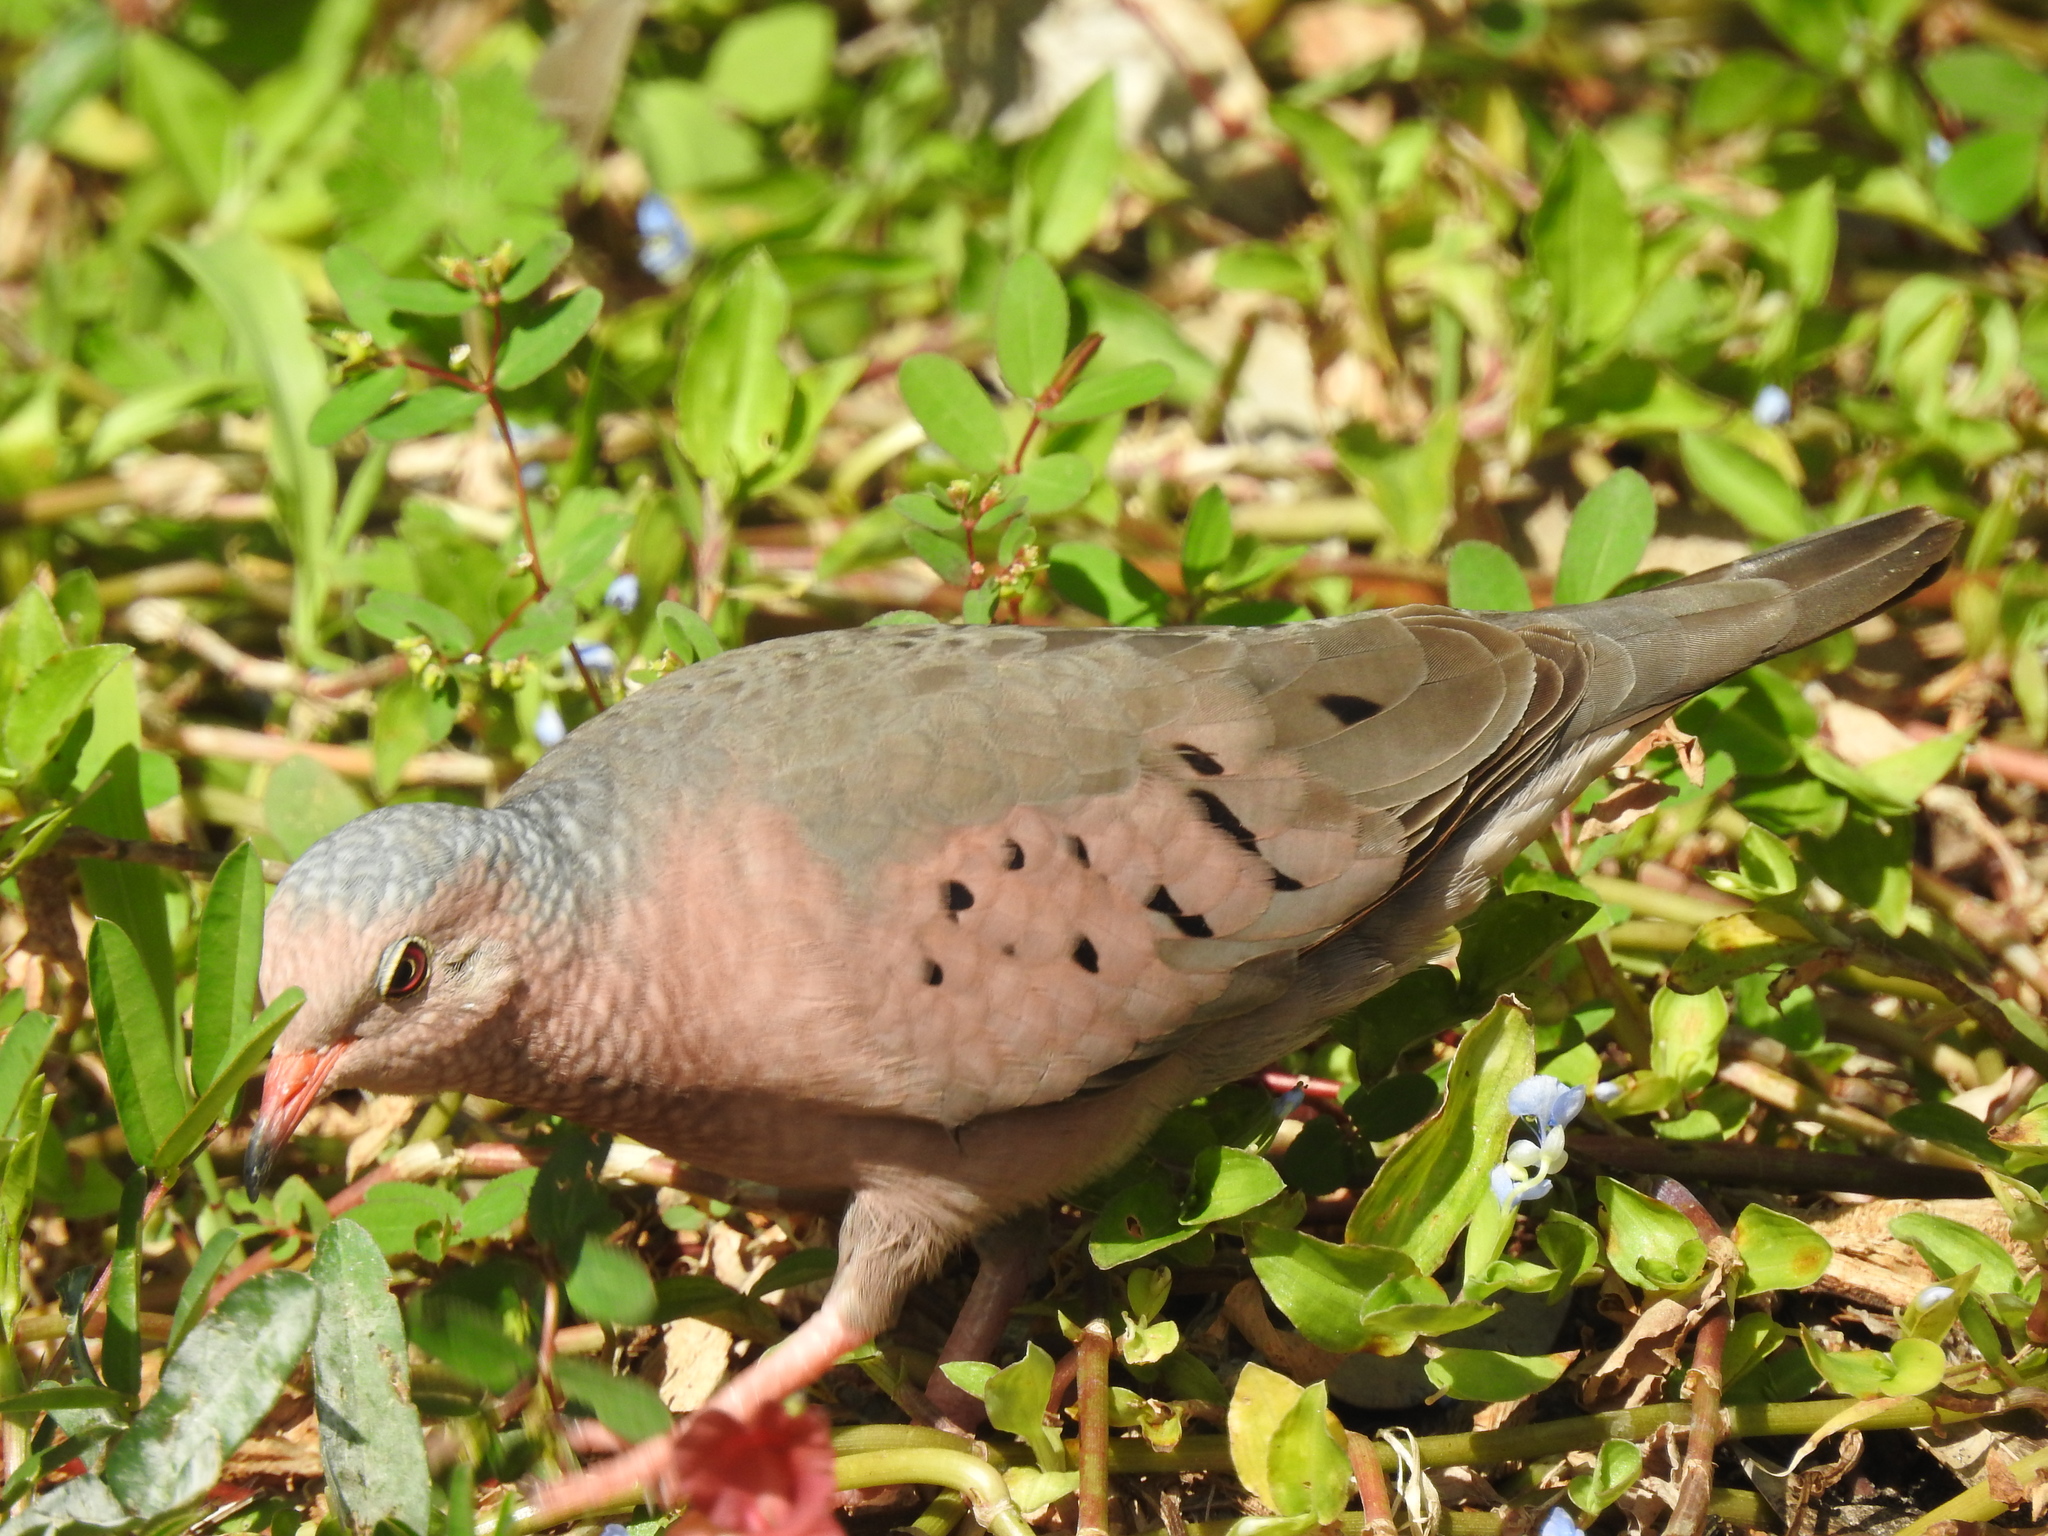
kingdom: Animalia
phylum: Chordata
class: Aves
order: Columbiformes
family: Columbidae
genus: Columbina
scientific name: Columbina passerina
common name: Common ground-dove
